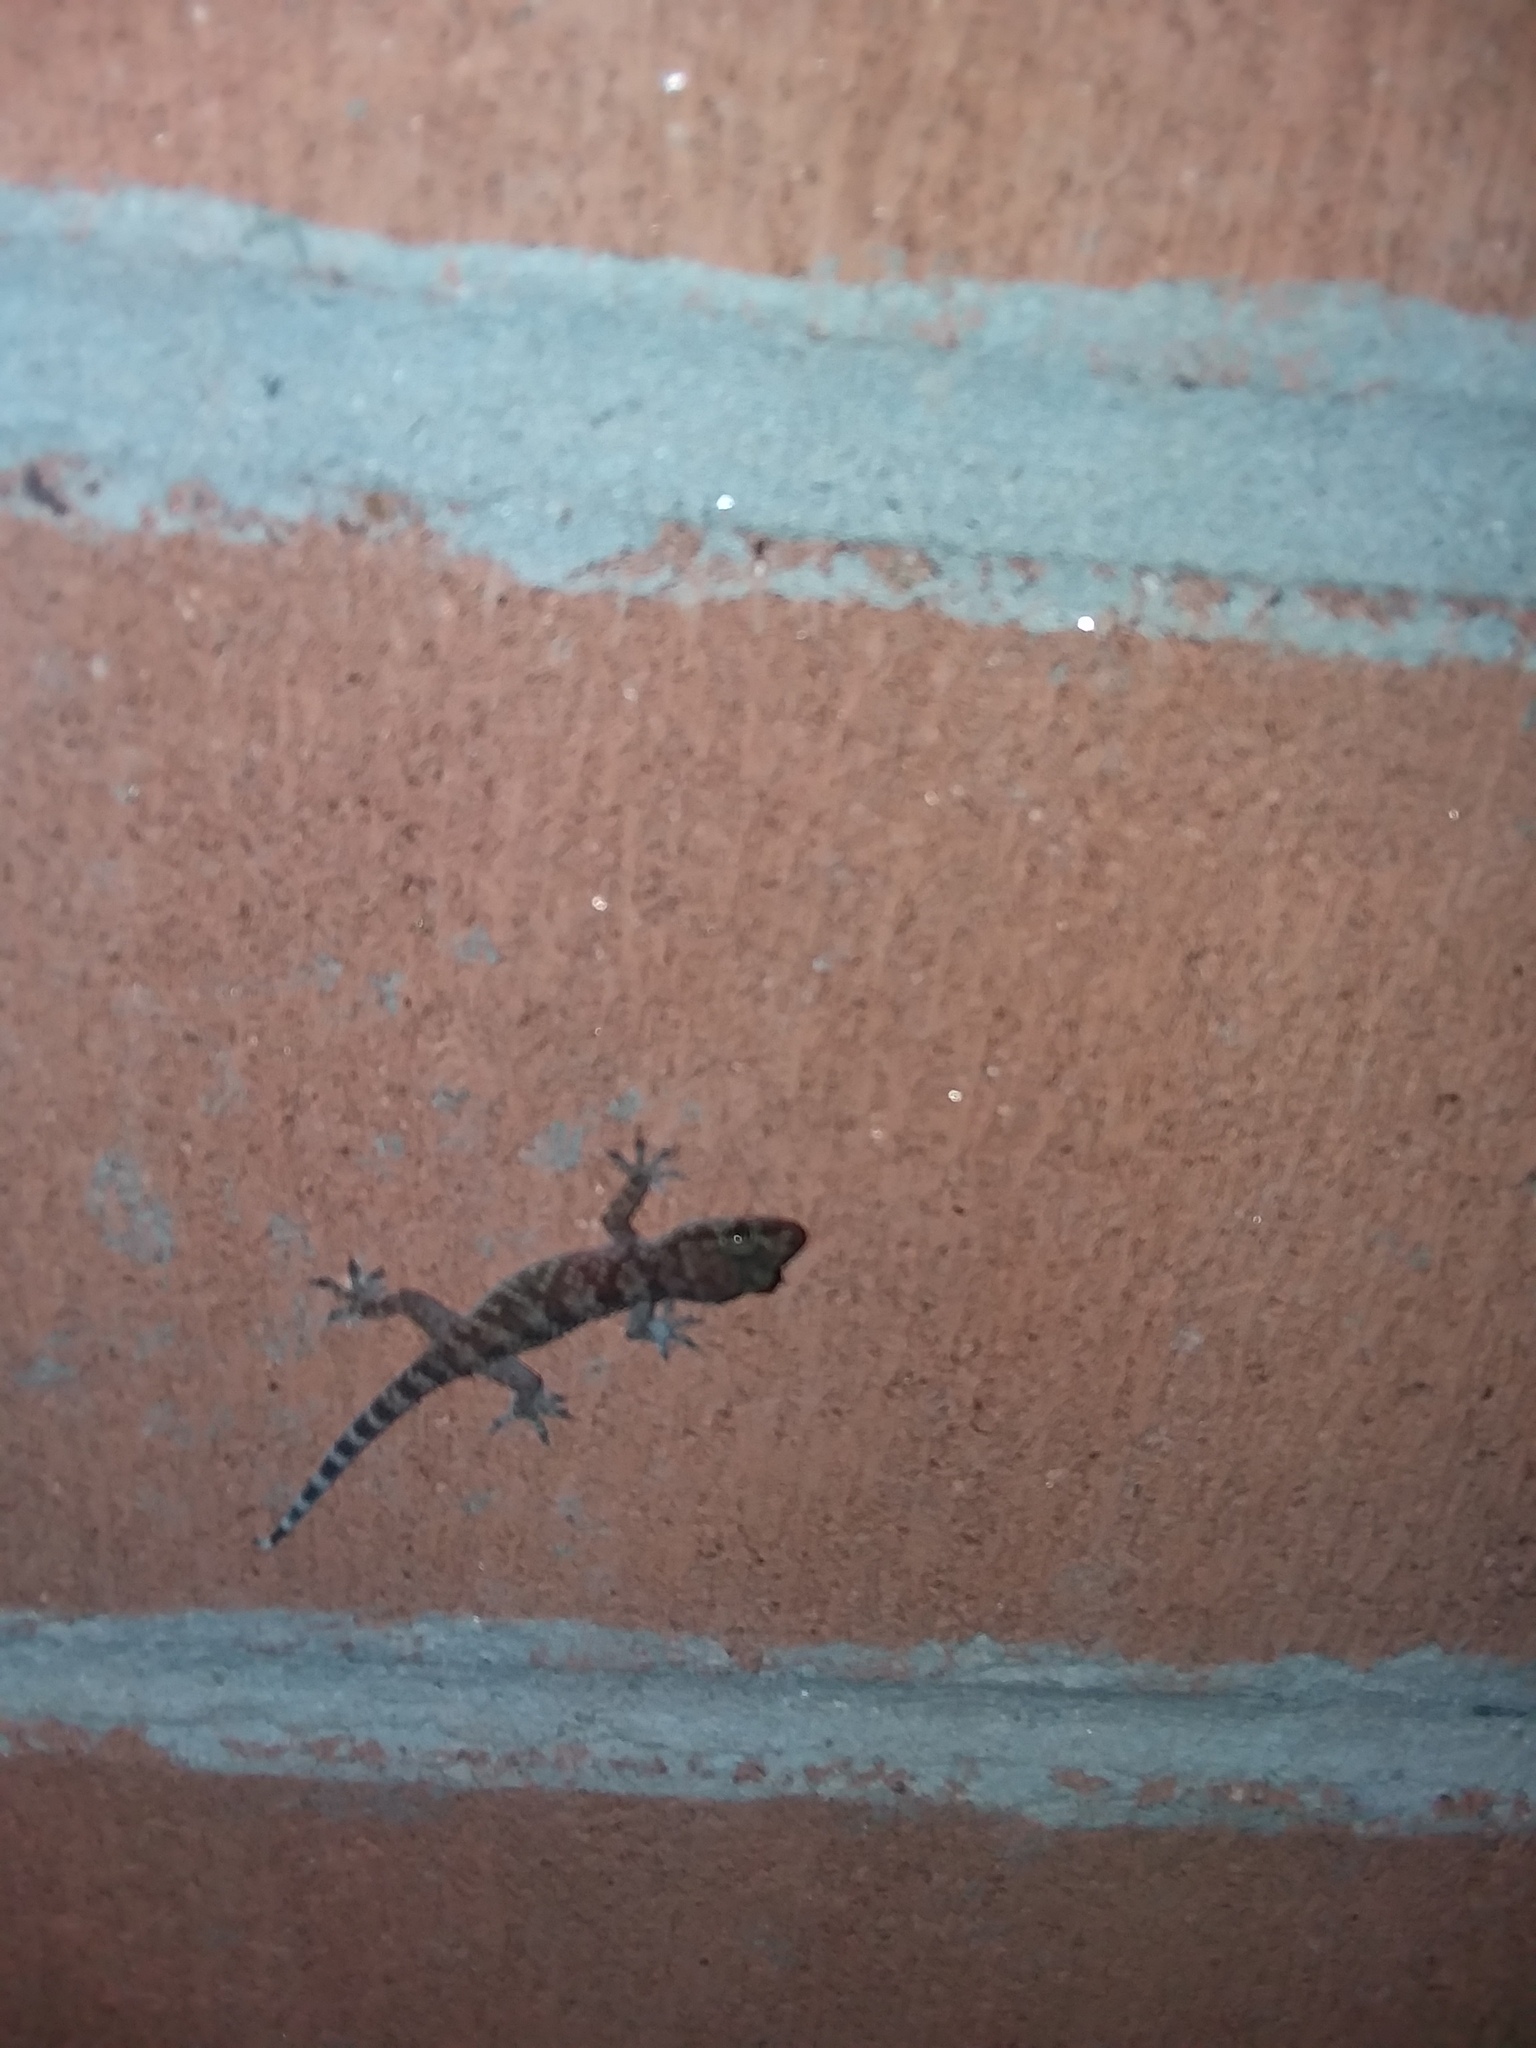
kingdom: Animalia
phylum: Chordata
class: Squamata
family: Gekkonidae
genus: Hemidactylus
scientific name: Hemidactylus turcicus
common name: Turkish gecko
